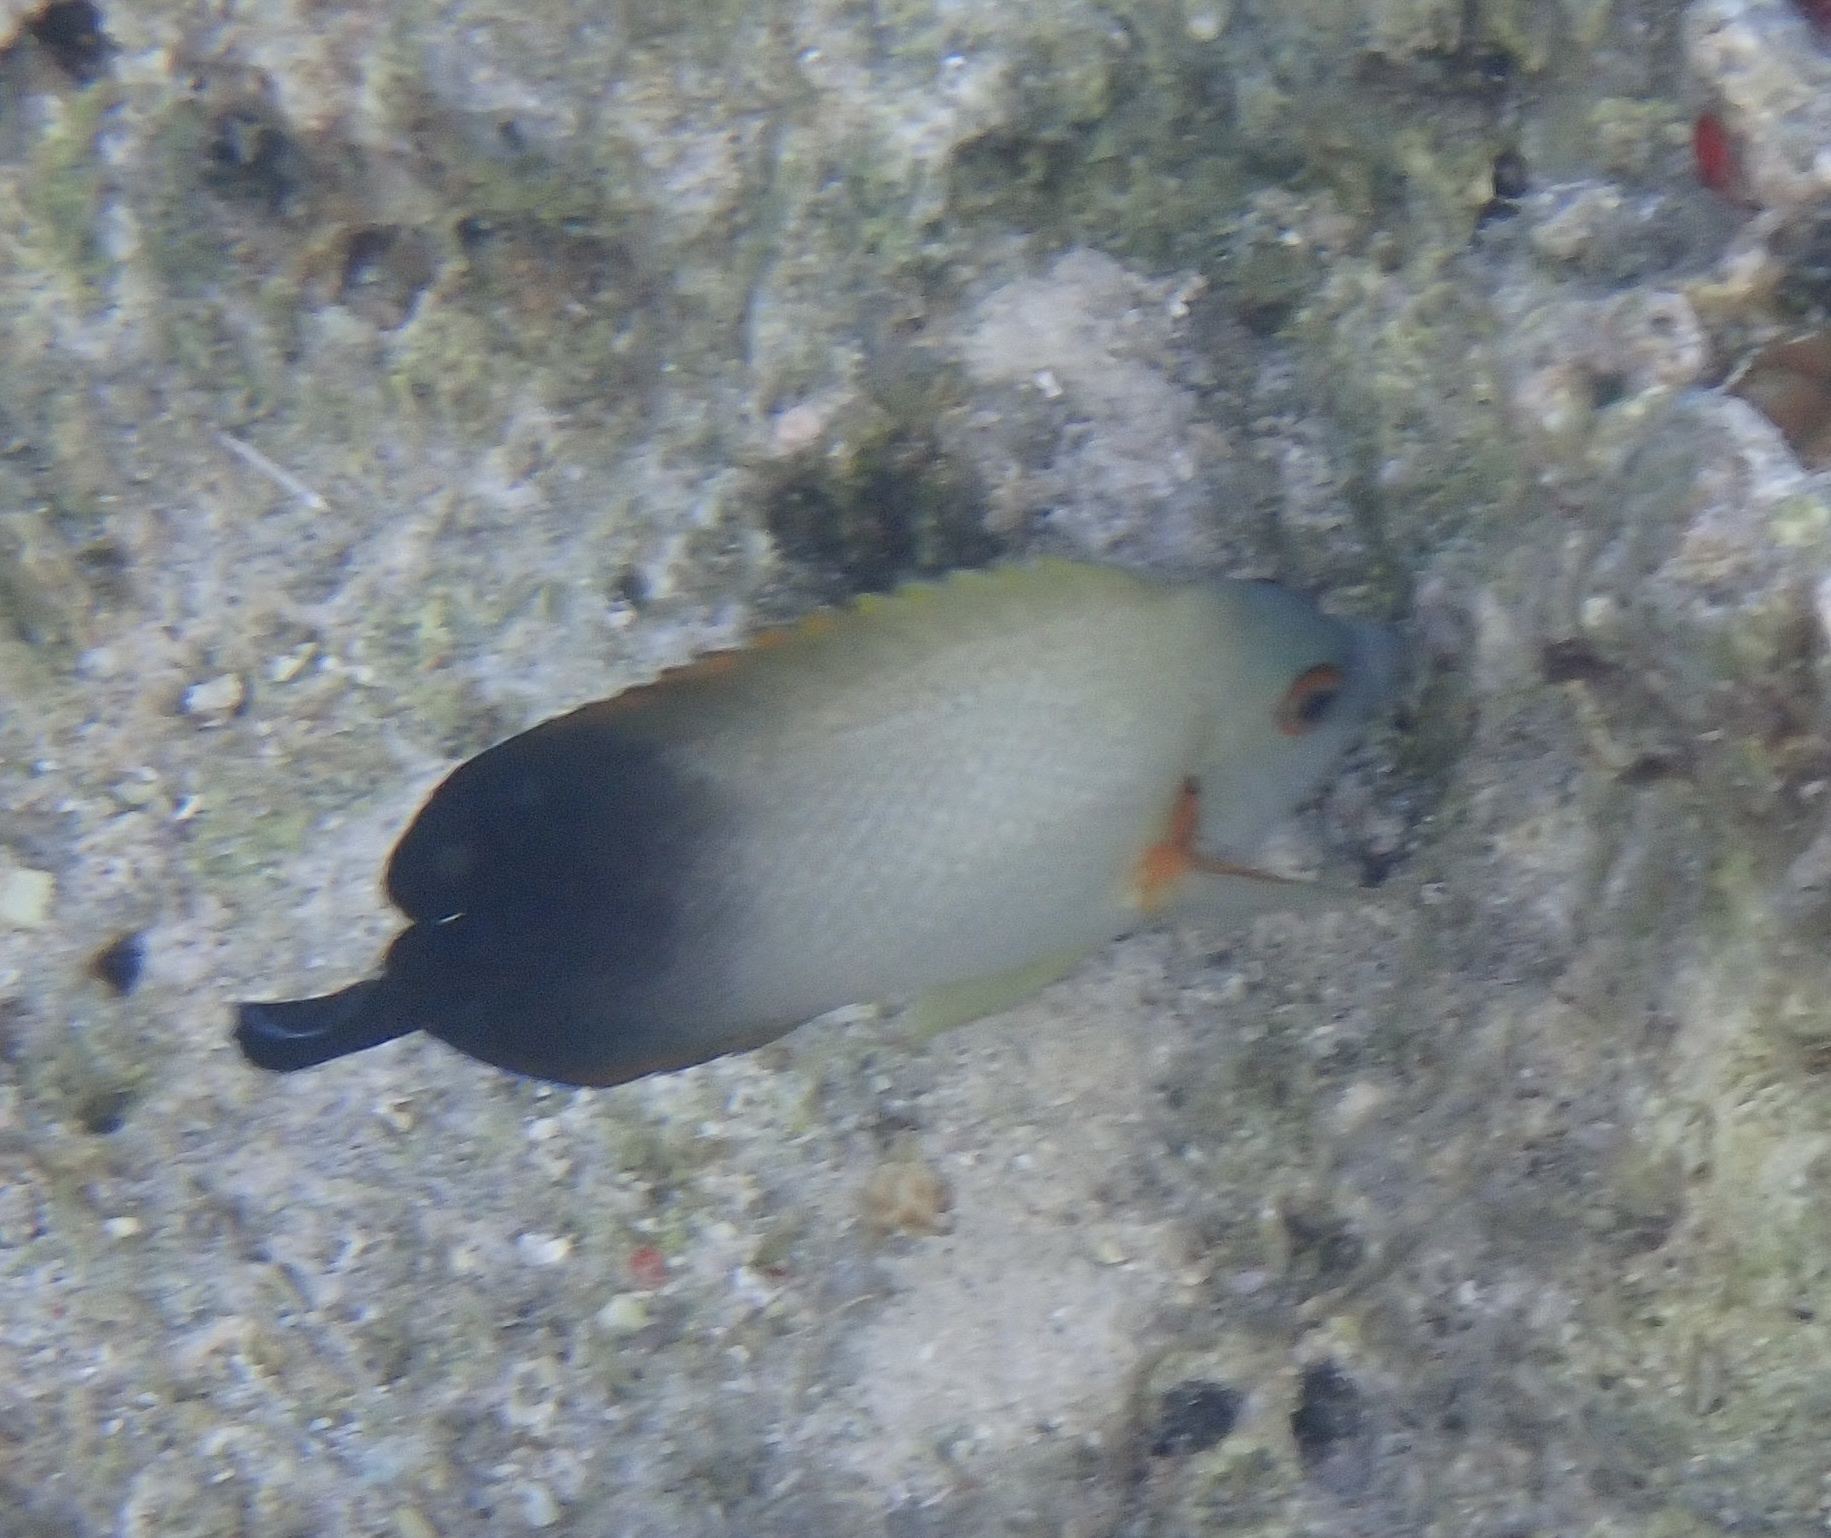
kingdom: Animalia
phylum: Chordata
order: Perciformes
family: Pomacanthidae
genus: Centropyge
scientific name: Centropyge vrolikii
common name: Pearlscale angelfish
